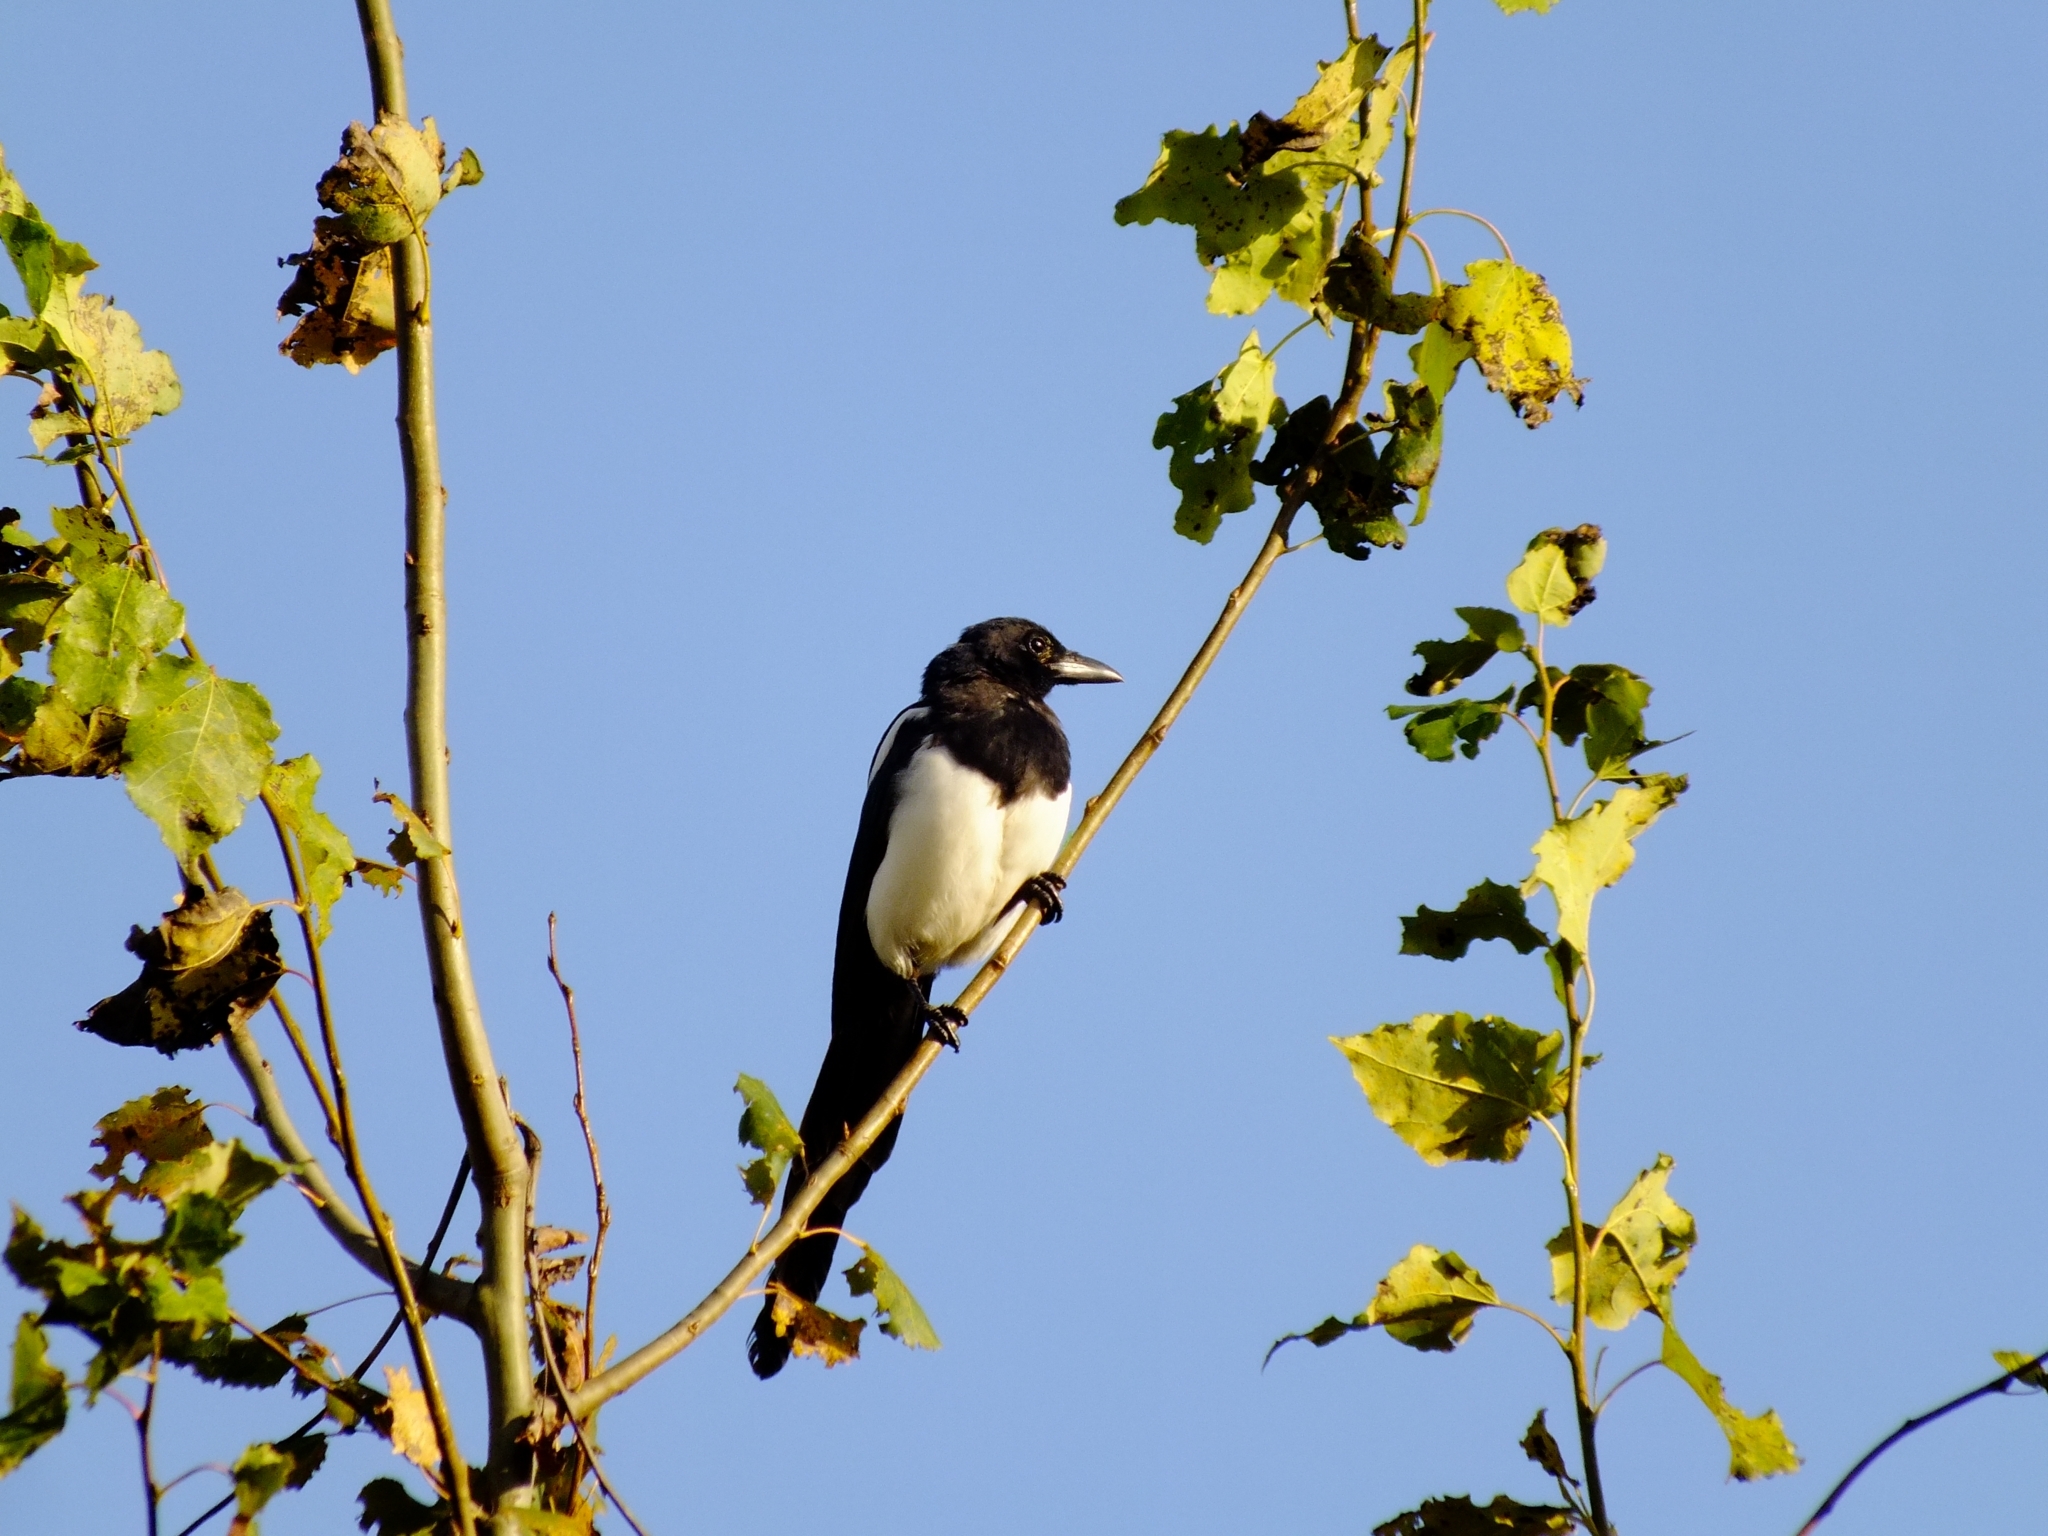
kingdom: Animalia
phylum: Chordata
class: Aves
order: Passeriformes
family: Corvidae
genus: Pica
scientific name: Pica pica
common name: Eurasian magpie
